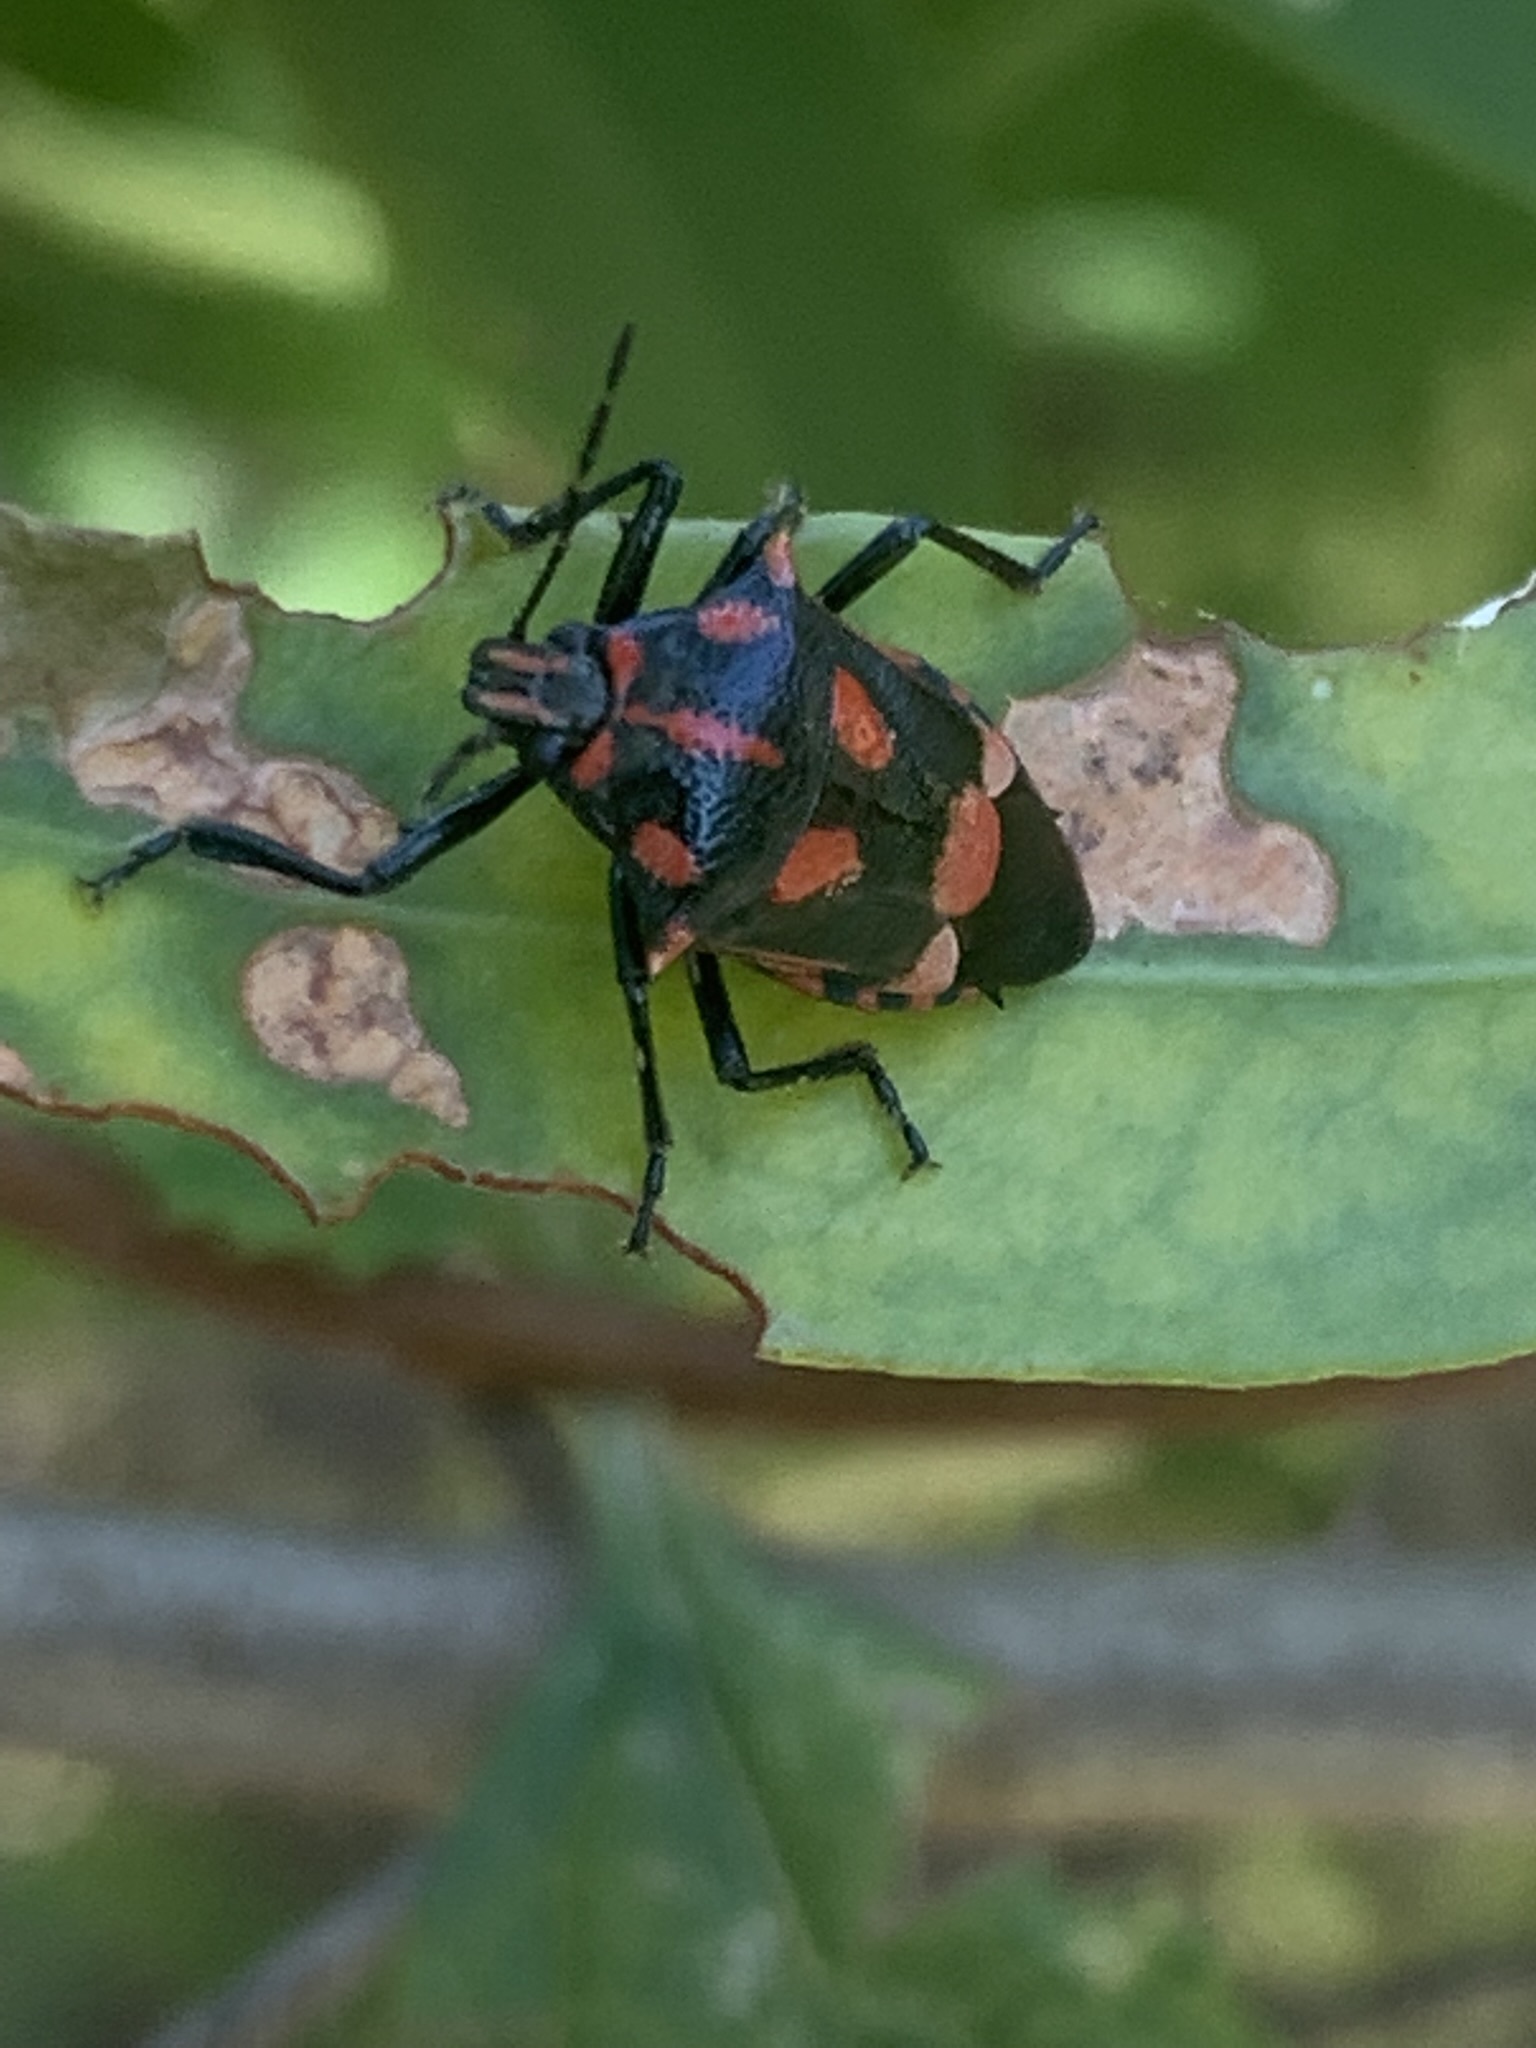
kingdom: Animalia
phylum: Arthropoda
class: Insecta
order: Hemiptera
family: Pentatomidae
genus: Oplomus
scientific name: Oplomus cruentus
